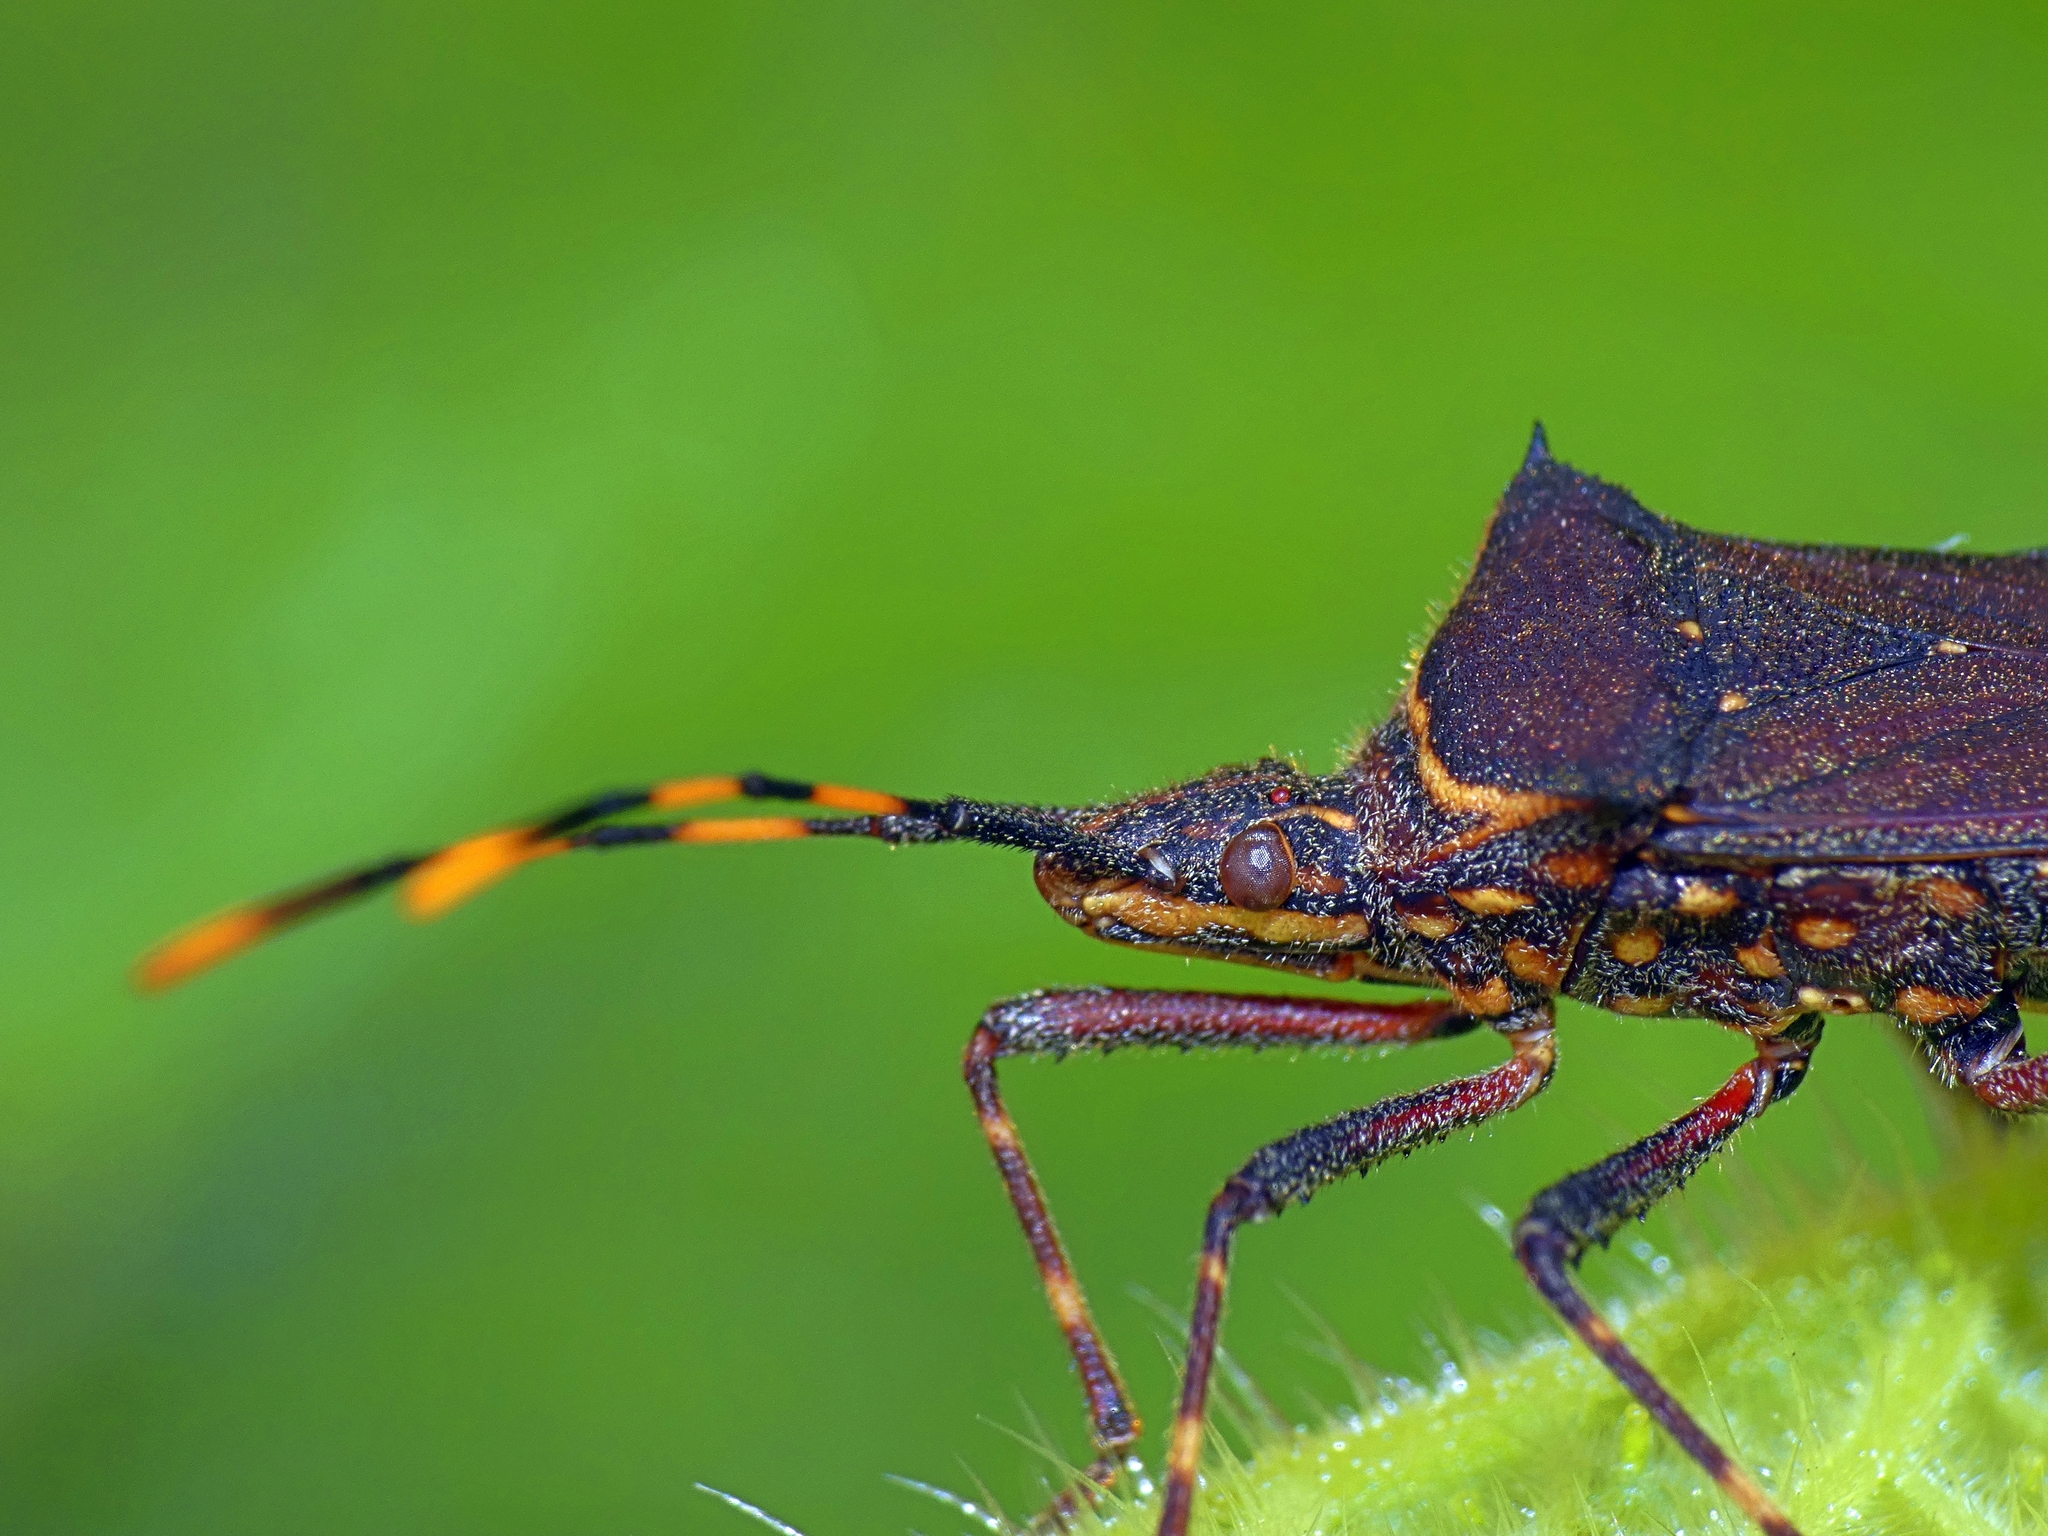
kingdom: Animalia
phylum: Arthropoda
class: Insecta
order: Hemiptera
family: Coreidae
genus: Leptoglossus
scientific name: Leptoglossus gonagra
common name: Citron bug
